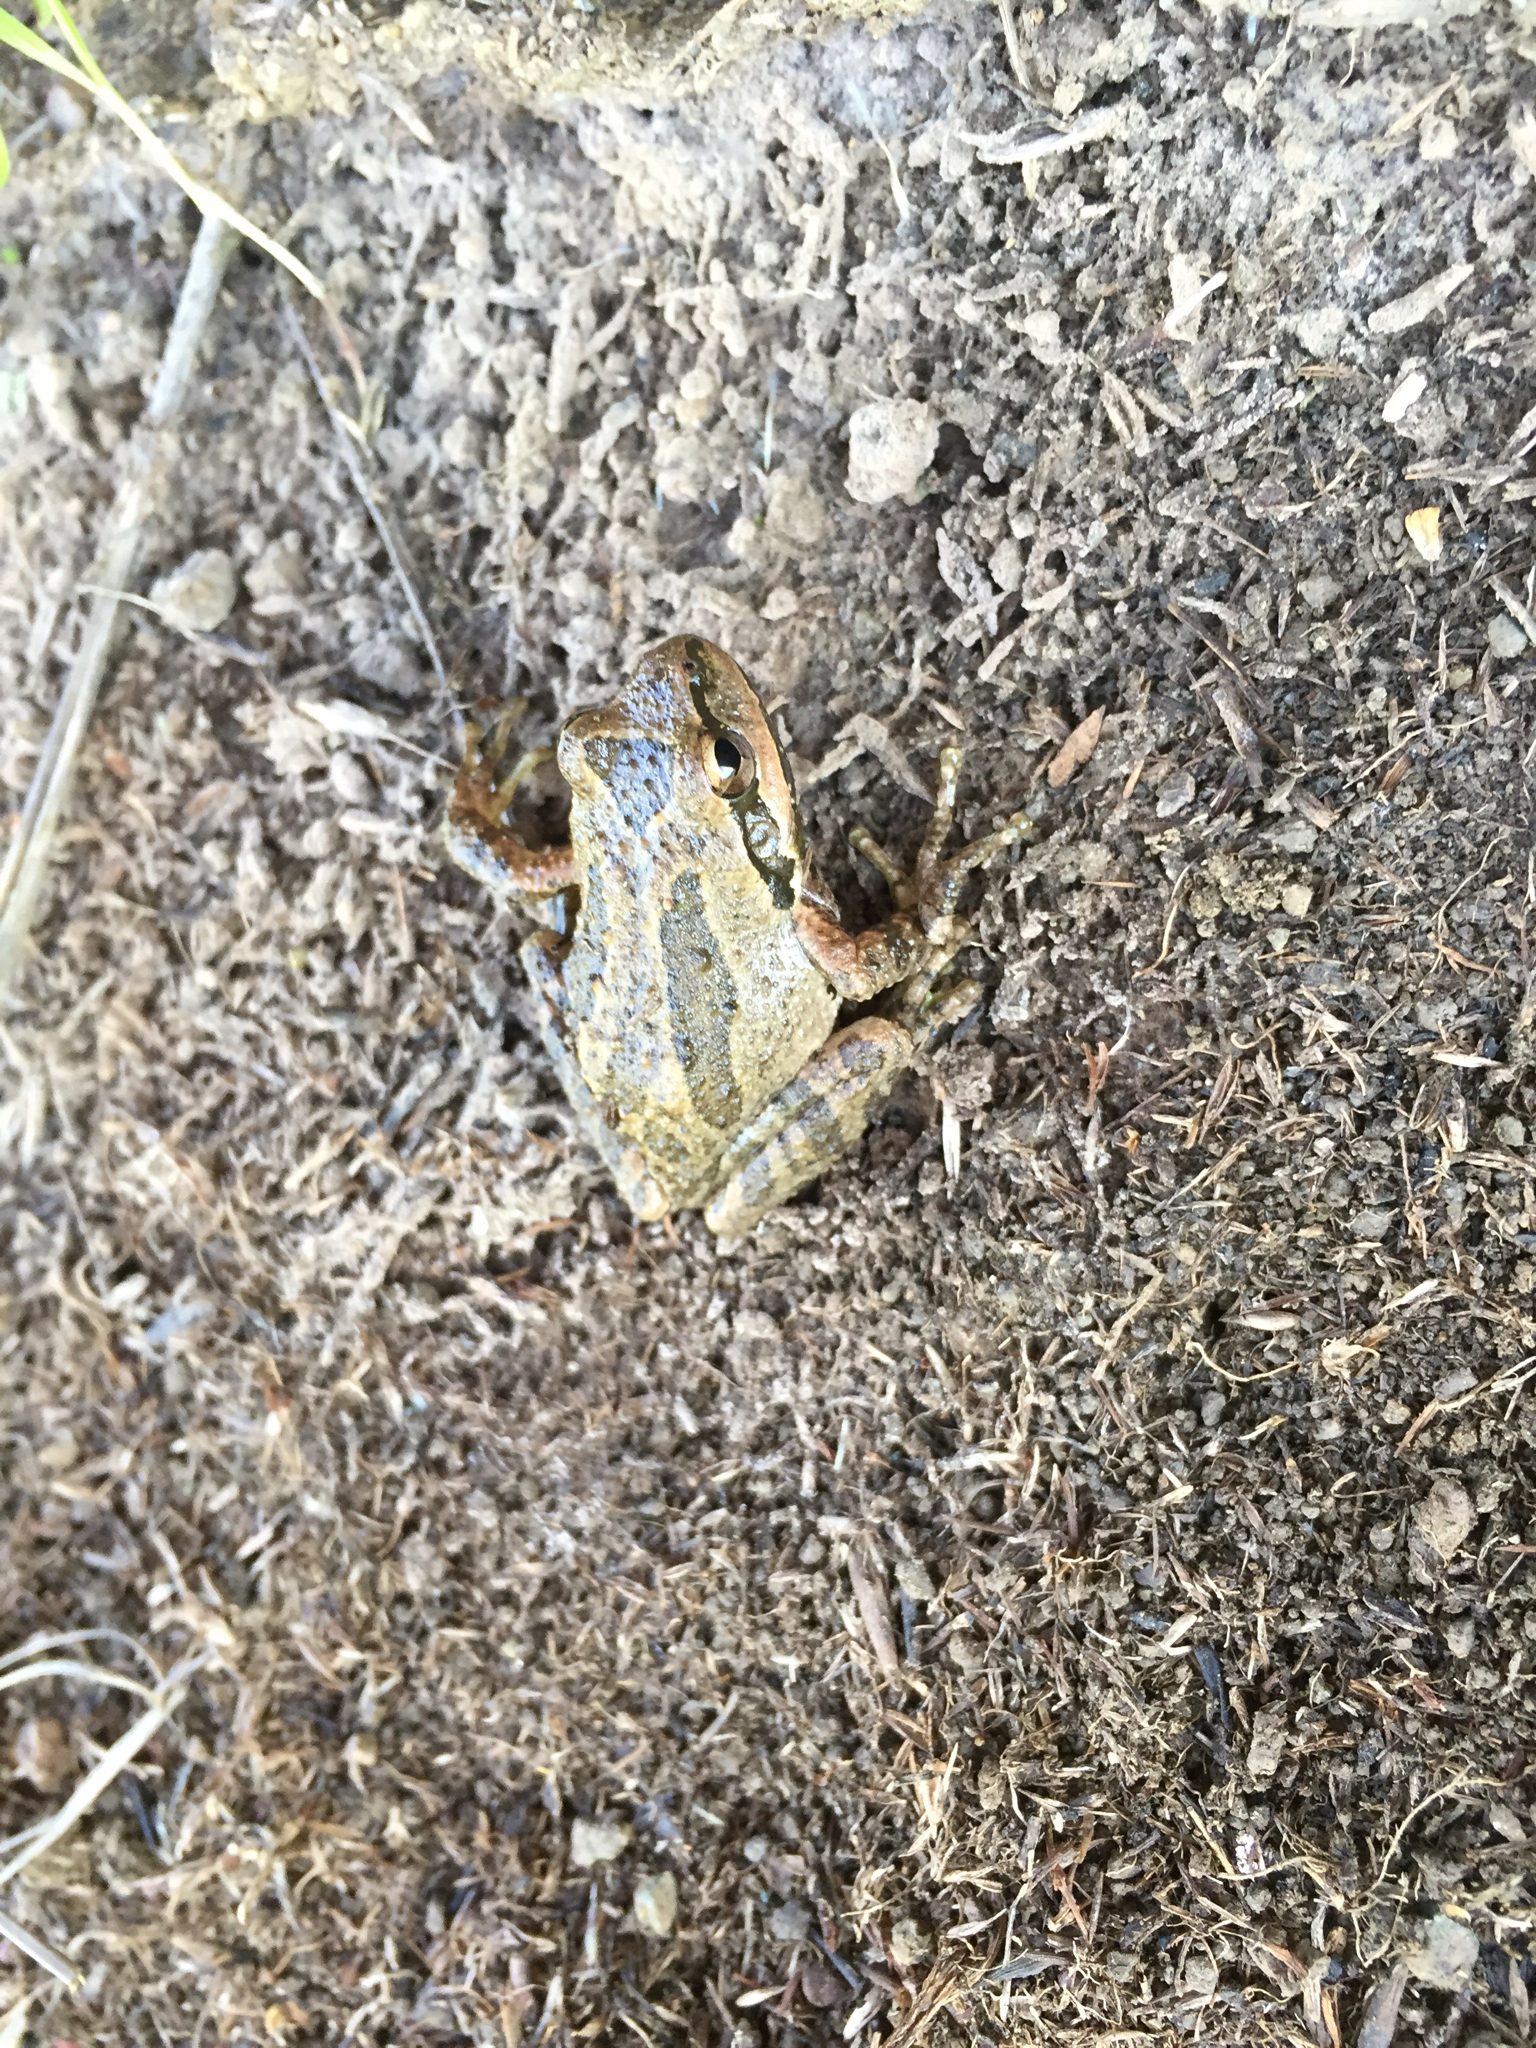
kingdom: Animalia
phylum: Chordata
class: Amphibia
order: Anura
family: Hylidae
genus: Pseudacris
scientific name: Pseudacris regilla
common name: Pacific chorus frog
